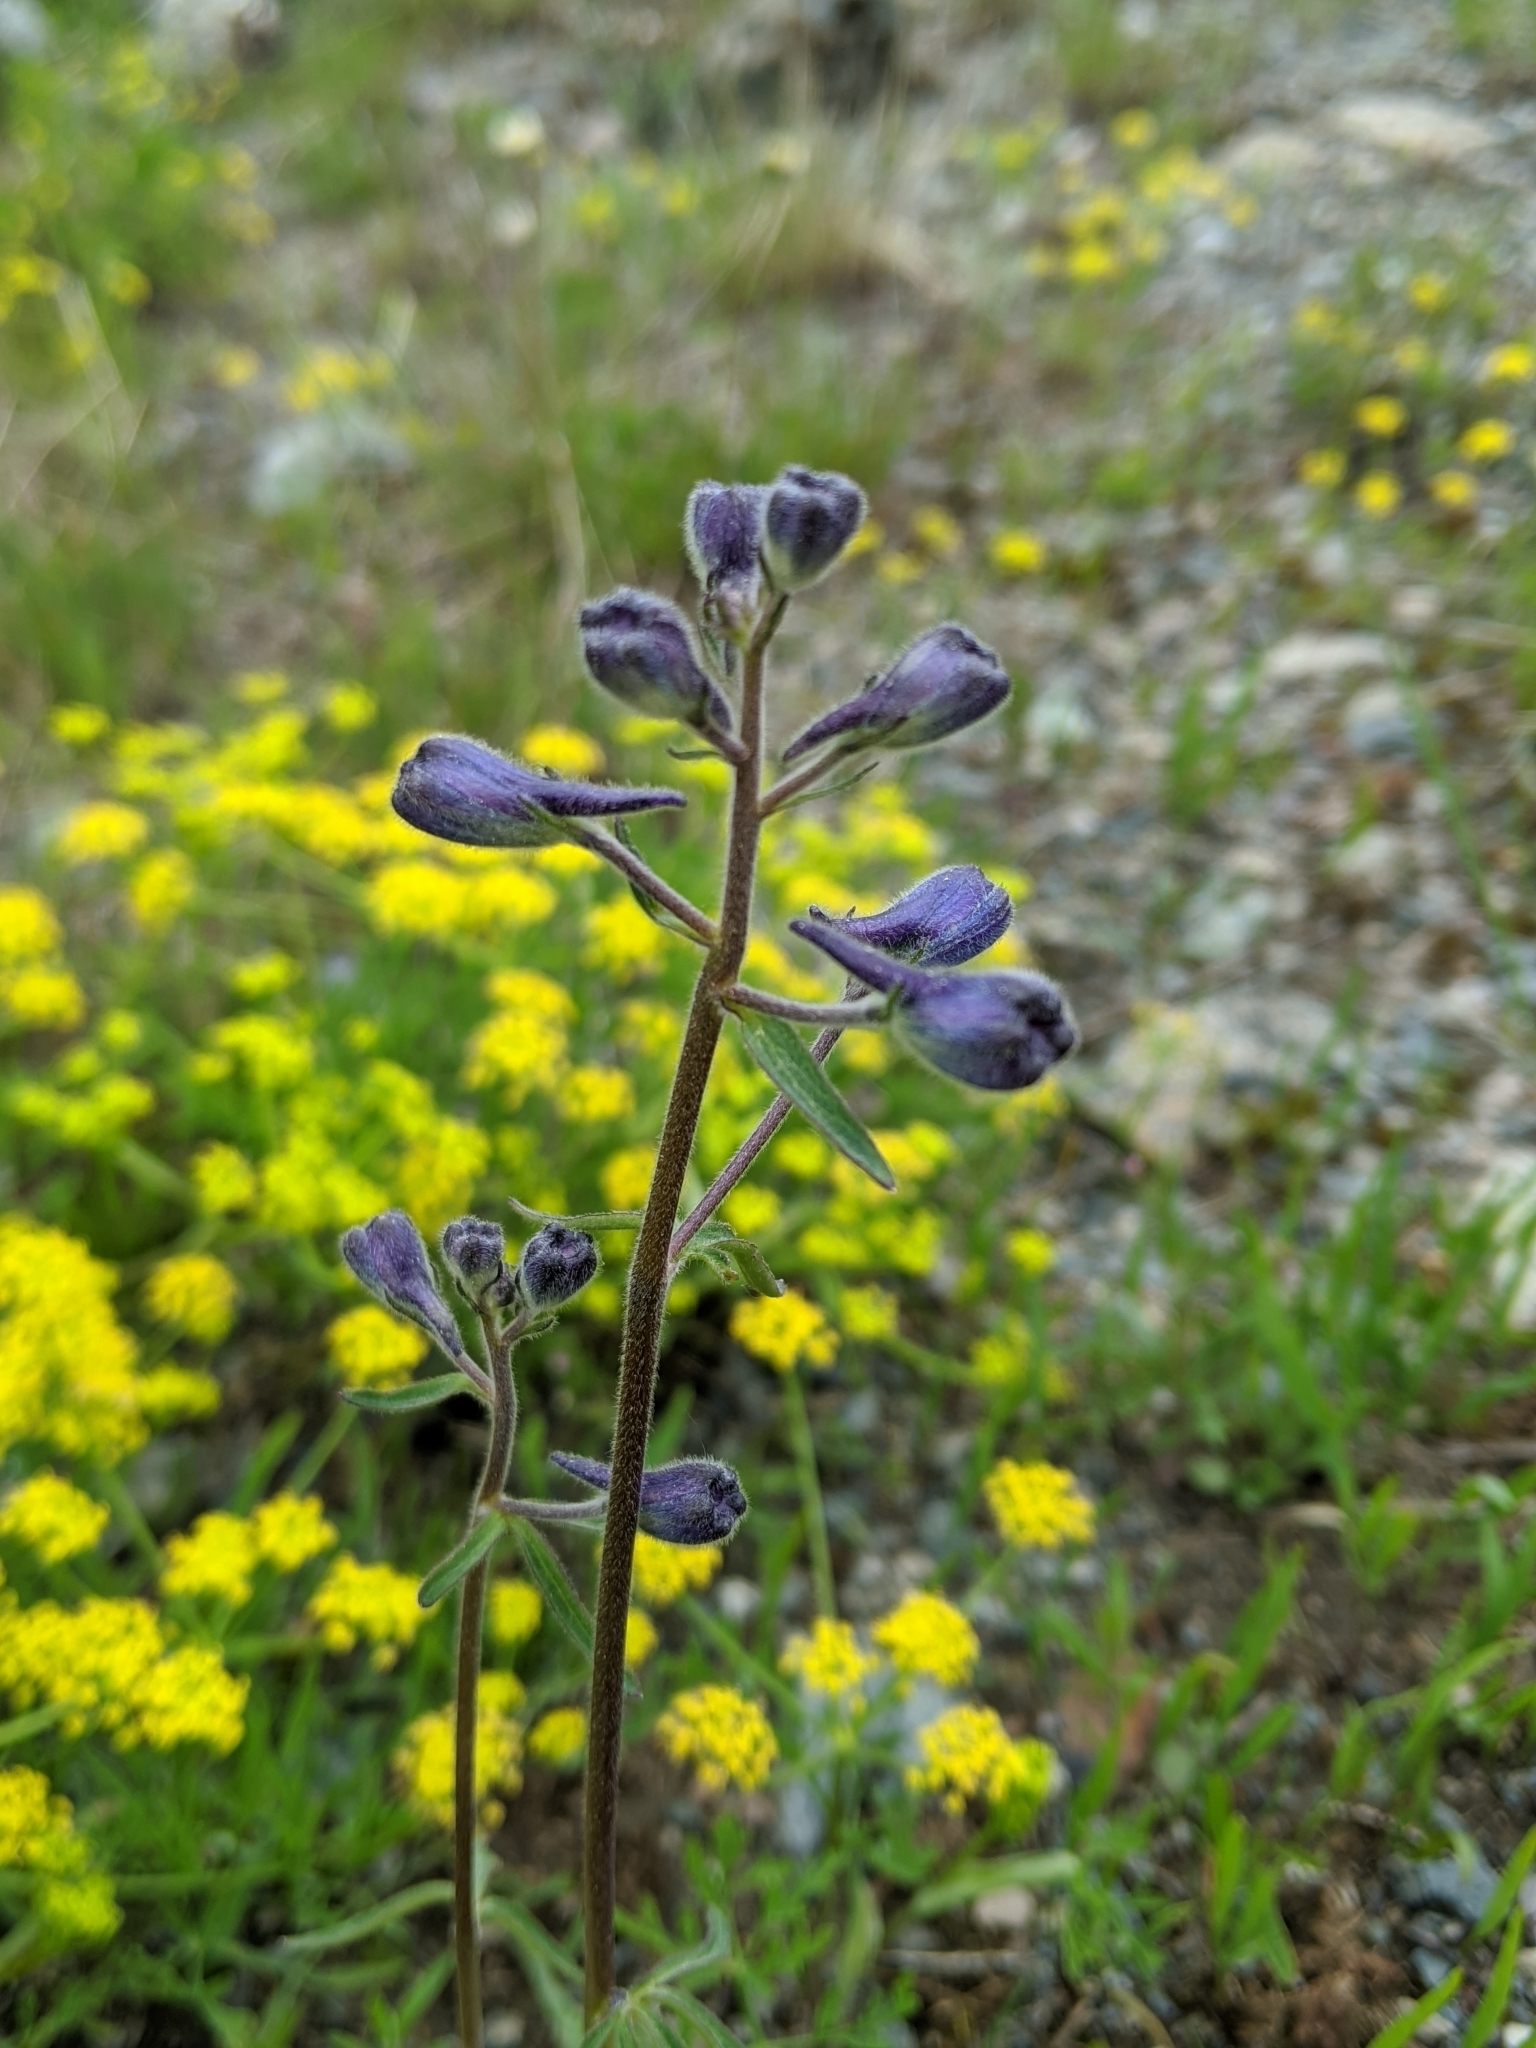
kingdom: Plantae
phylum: Tracheophyta
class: Magnoliopsida
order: Ranunculales
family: Ranunculaceae
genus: Delphinium
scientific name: Delphinium nuttallianum
